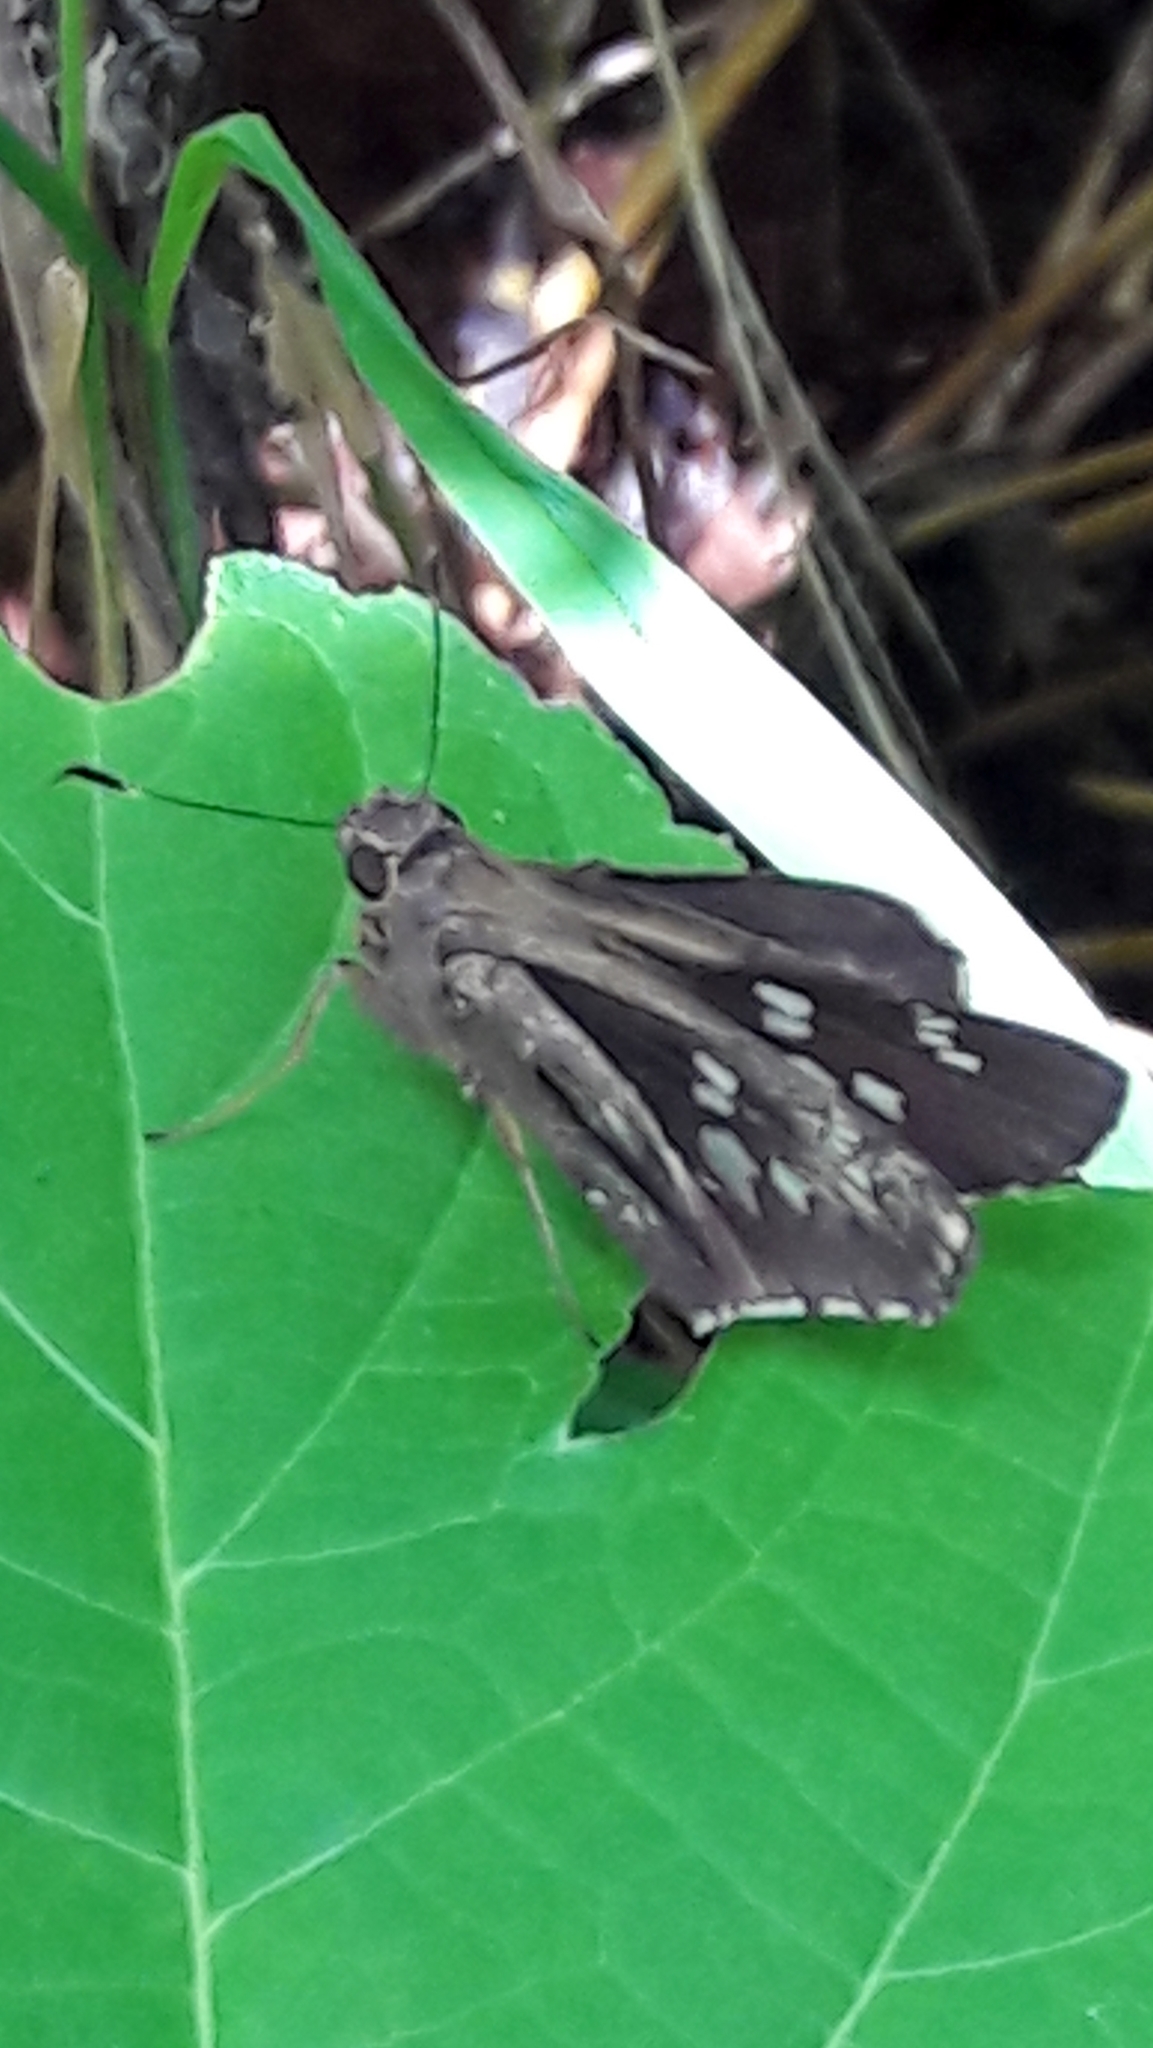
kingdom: Animalia
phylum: Arthropoda
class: Insecta
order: Lepidoptera
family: Hesperiidae
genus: Naevolus
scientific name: Naevolus orius
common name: Orius skipper
